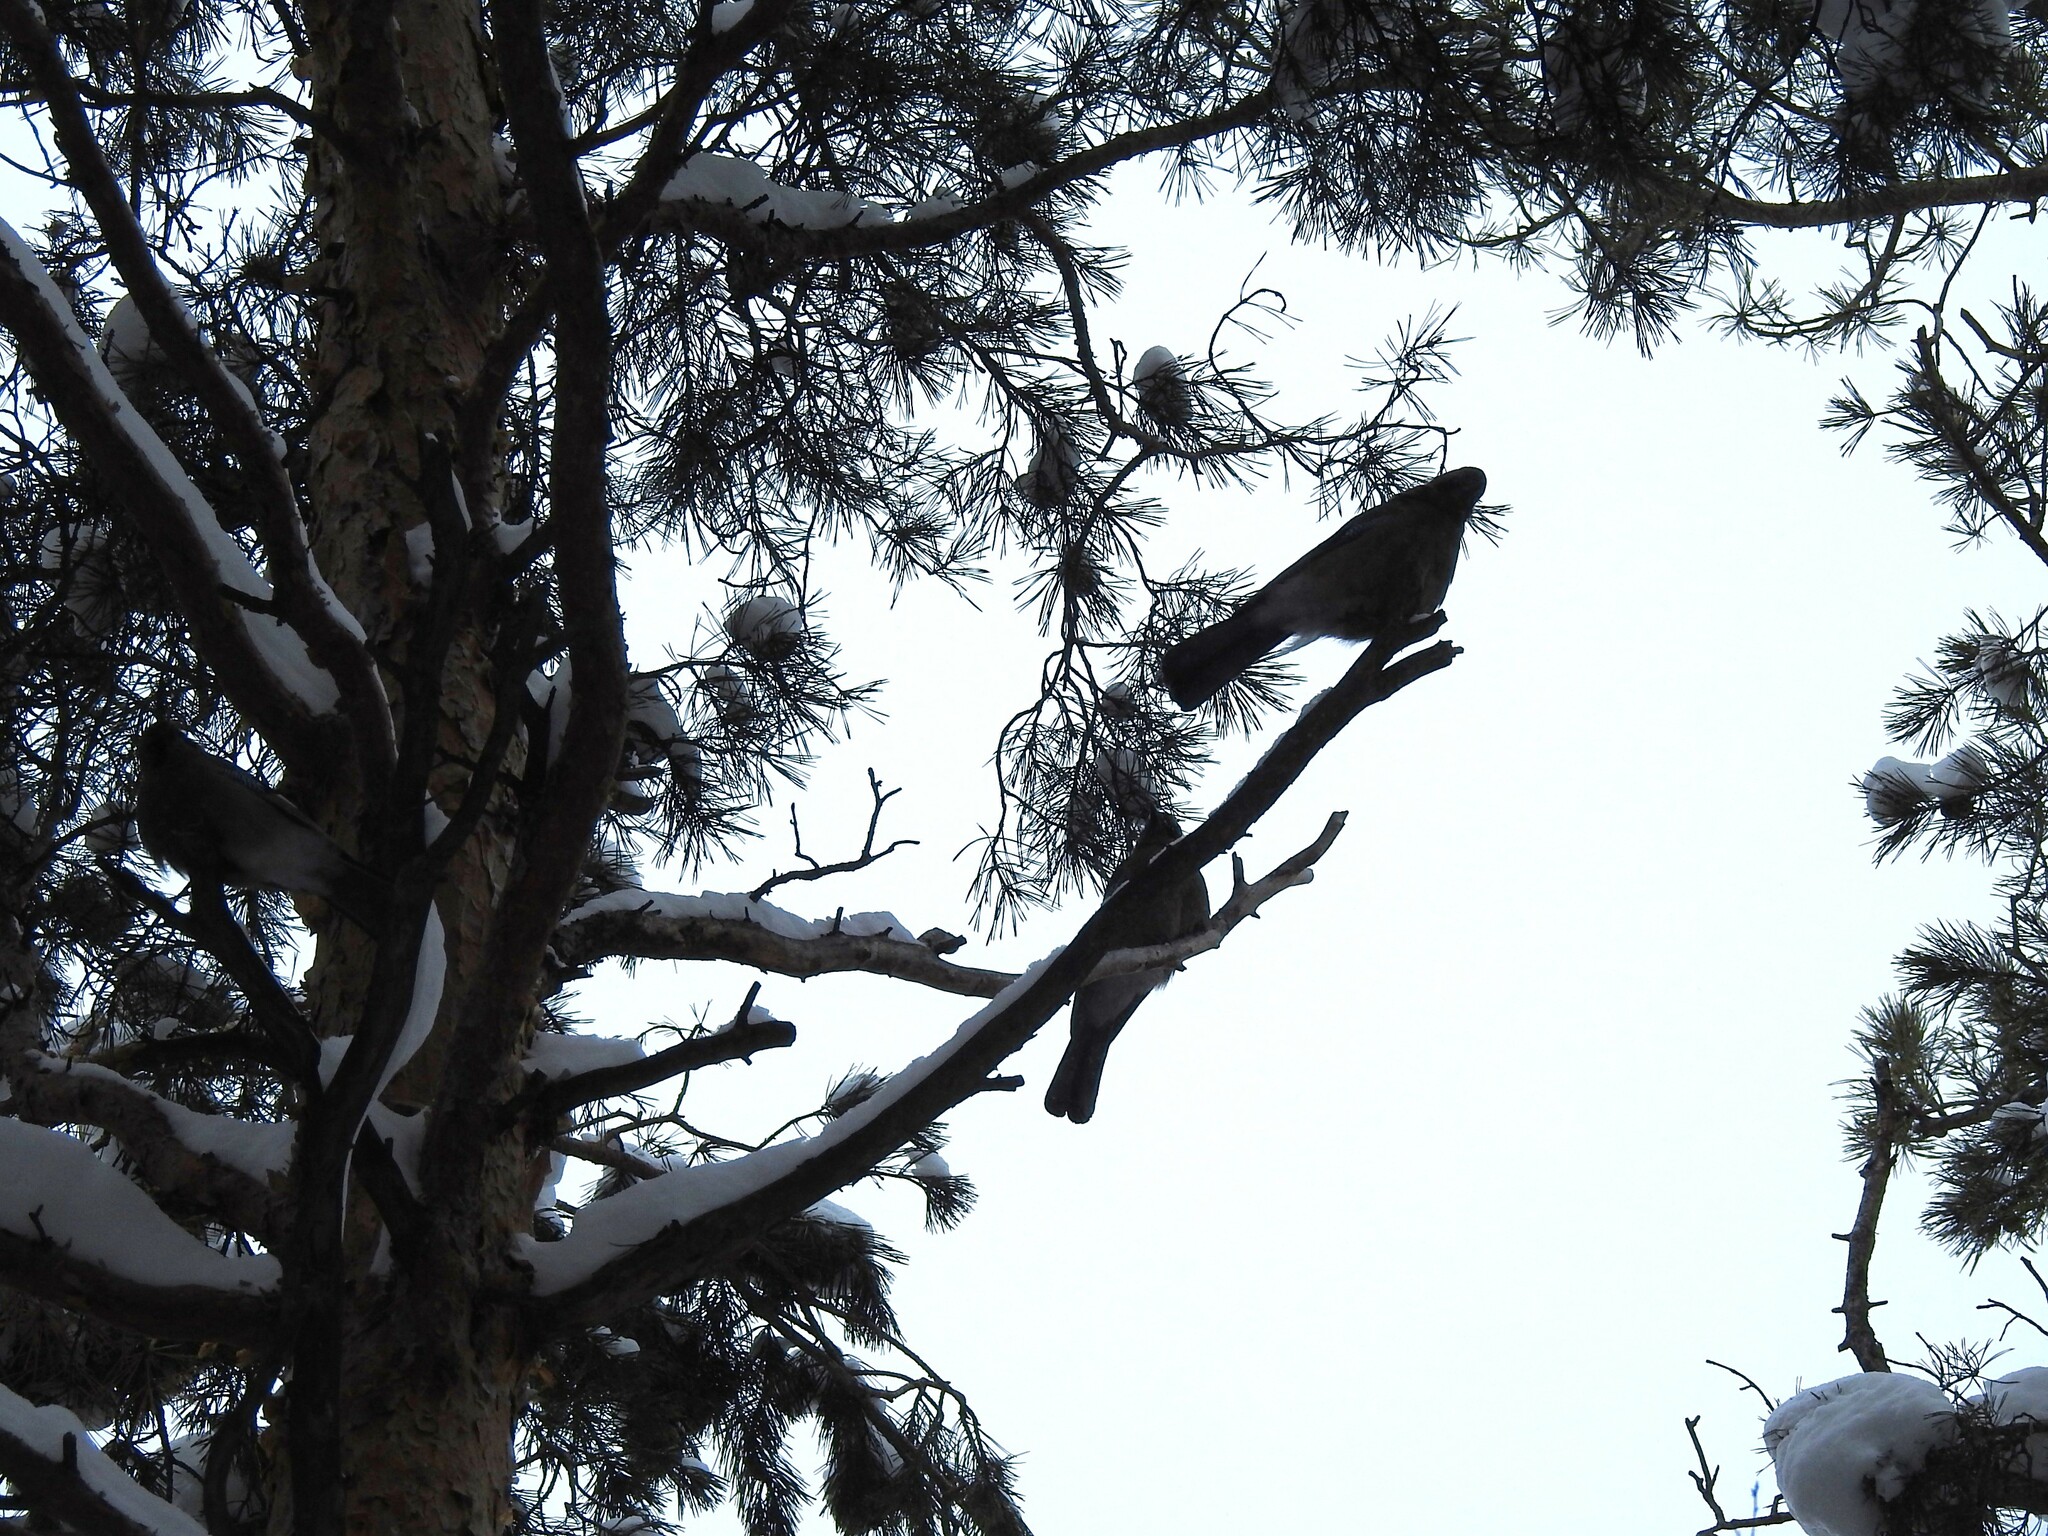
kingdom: Animalia
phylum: Chordata
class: Aves
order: Passeriformes
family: Corvidae
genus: Garrulus
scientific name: Garrulus glandarius
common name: Eurasian jay
